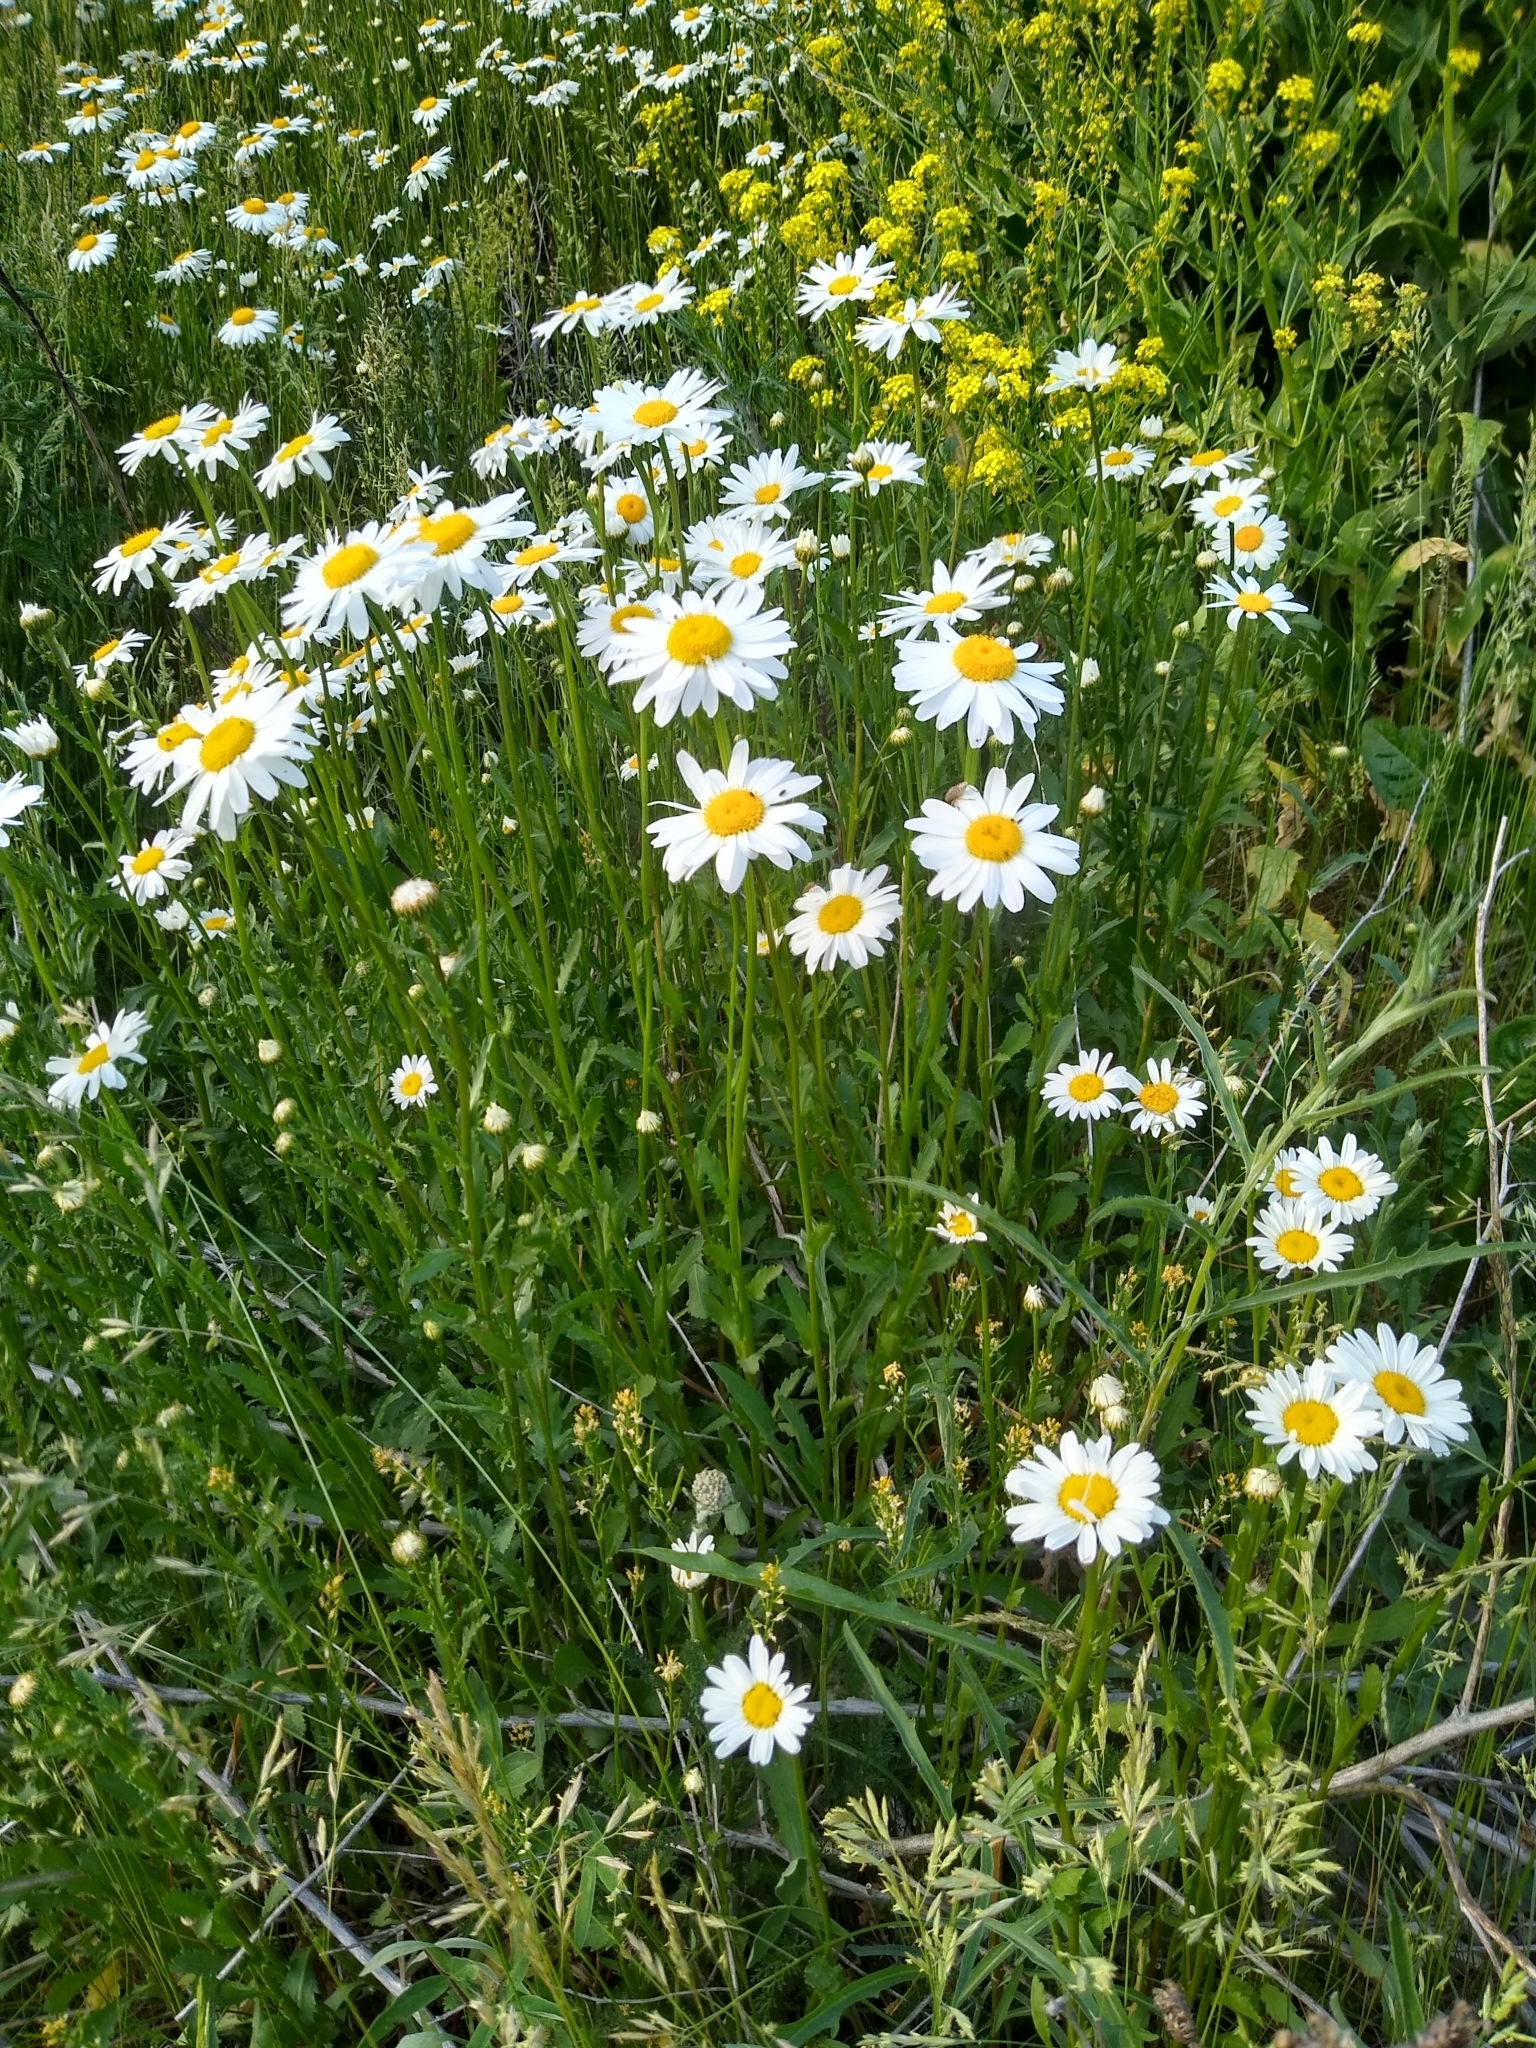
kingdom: Plantae
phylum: Tracheophyta
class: Magnoliopsida
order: Asterales
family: Asteraceae
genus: Leucanthemum
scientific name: Leucanthemum vulgare
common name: Oxeye daisy
